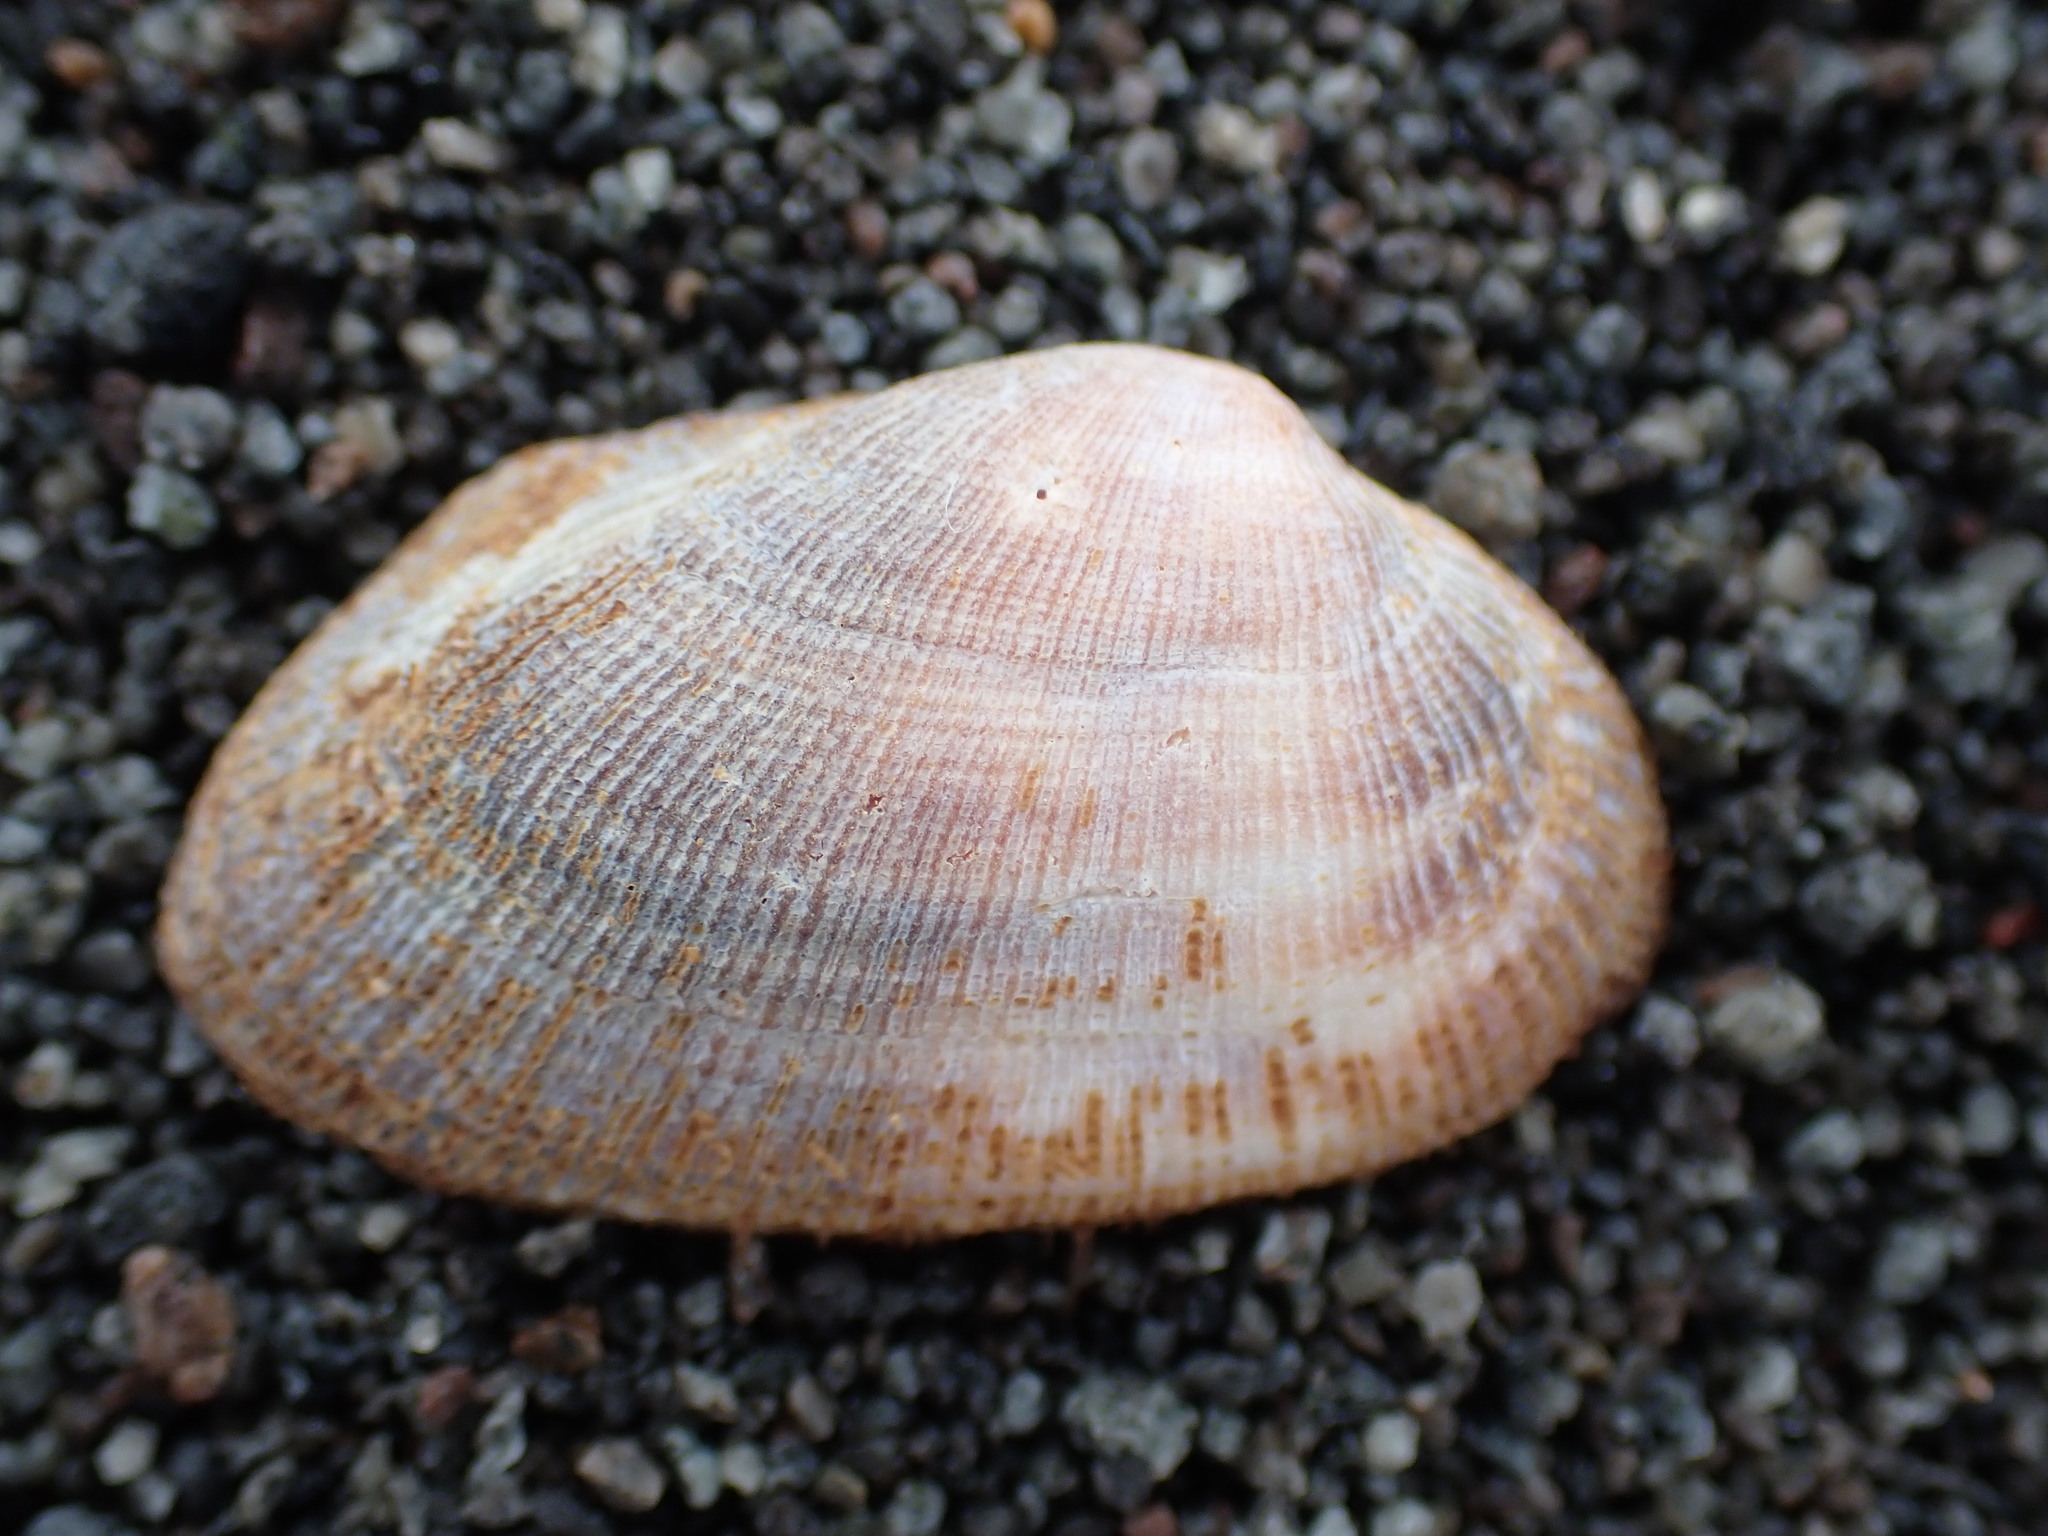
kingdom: Animalia
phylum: Mollusca
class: Bivalvia
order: Arcida
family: Arcidae
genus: Barbatia
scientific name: Barbatia novaezealandiae
